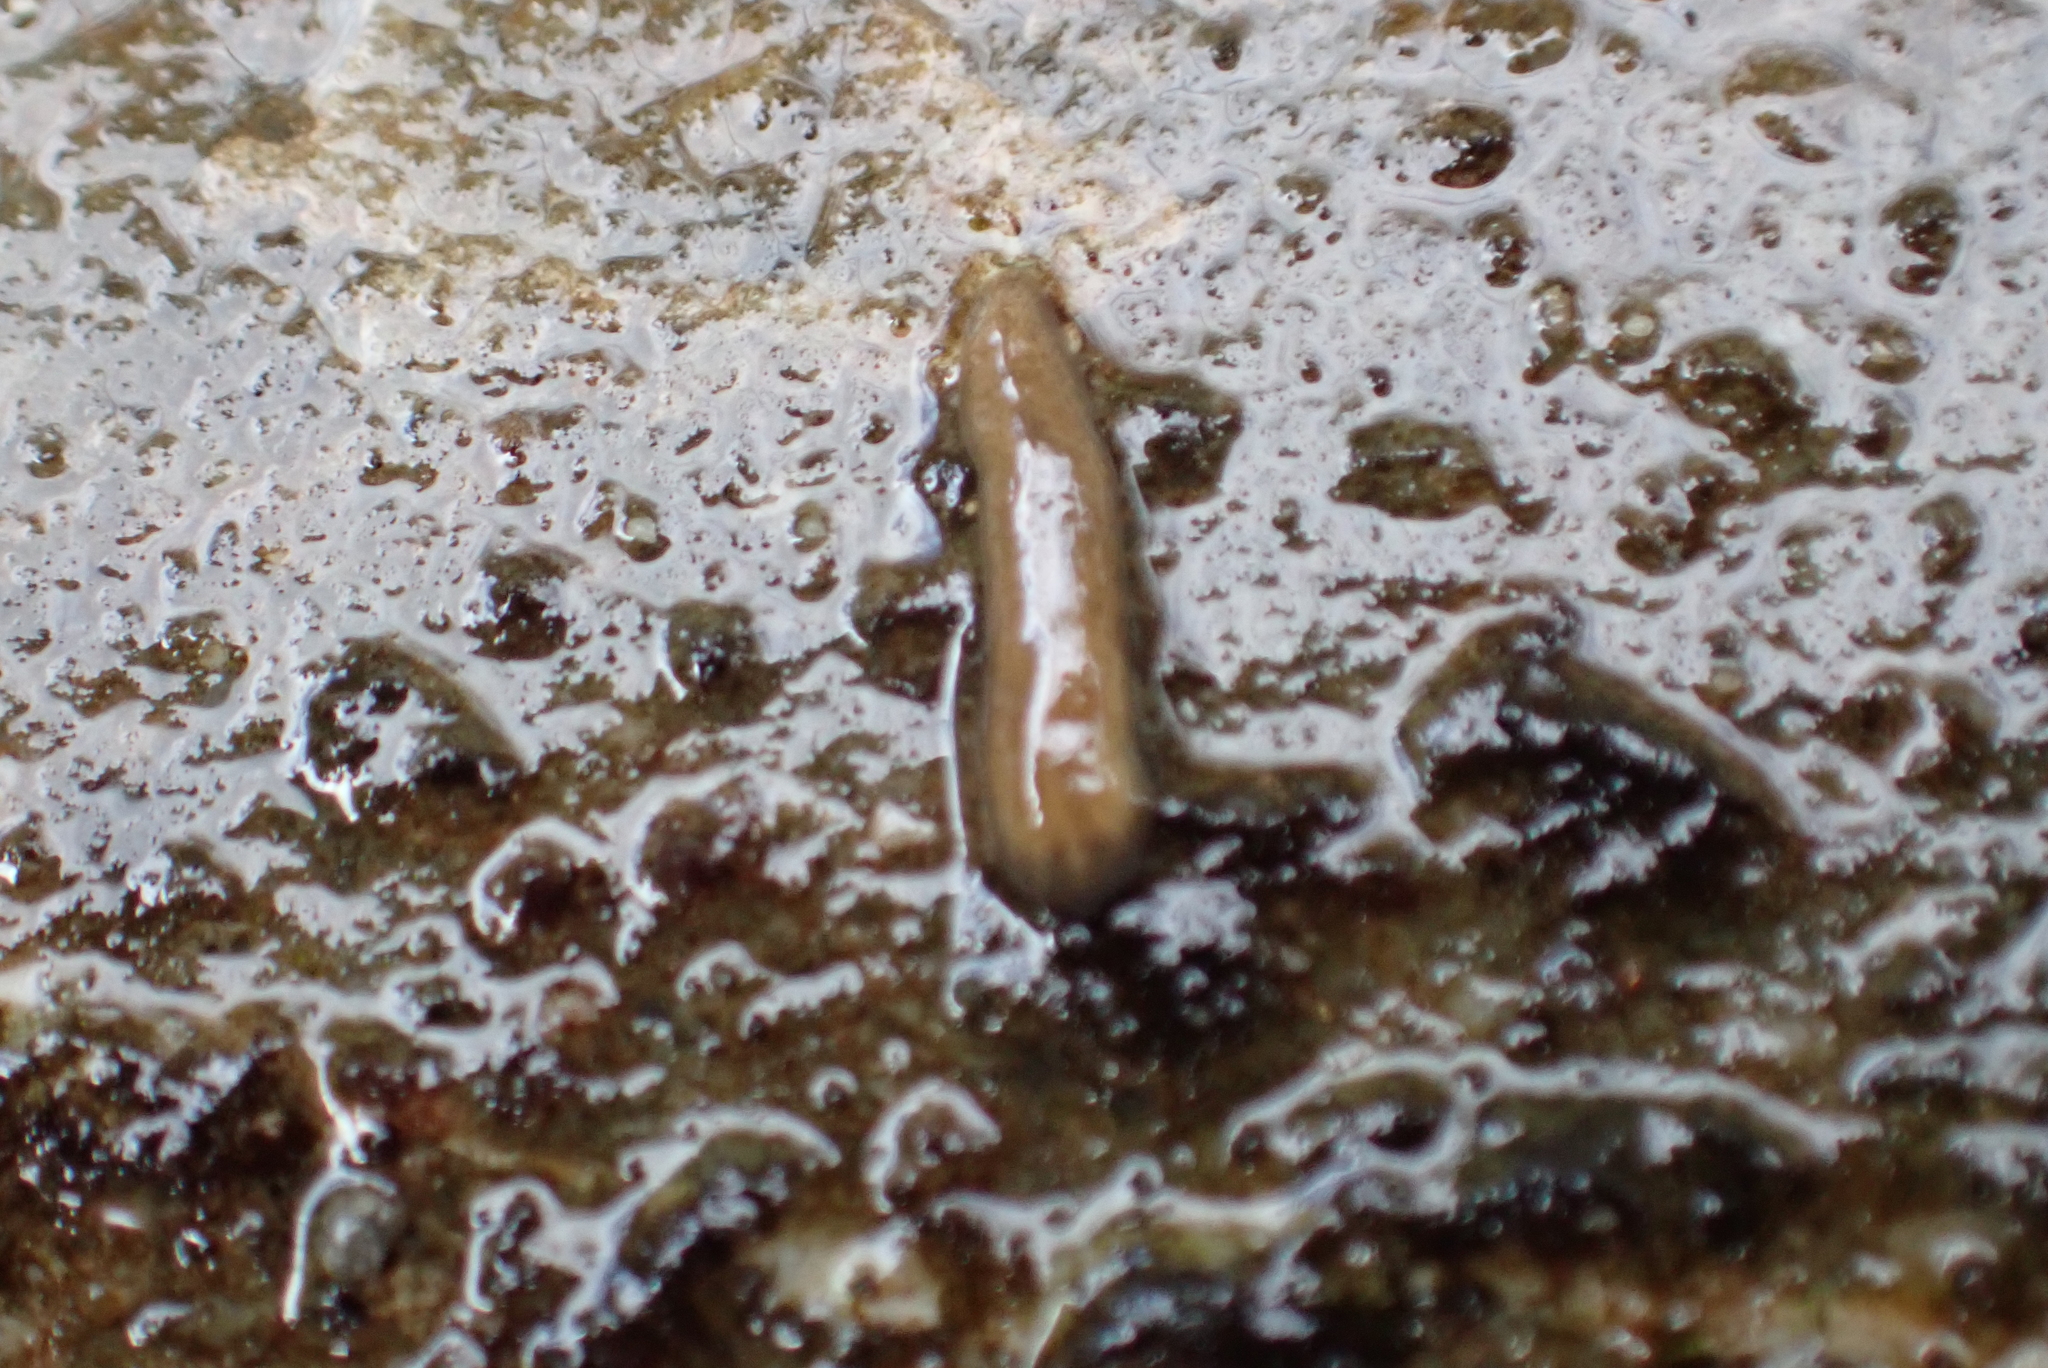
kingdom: Animalia
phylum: Mollusca
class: Gastropoda
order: Littorinimorpha
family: Tateidae
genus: Potamopyrgus
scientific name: Potamopyrgus antipodarum
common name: Jenkins' spire snail
